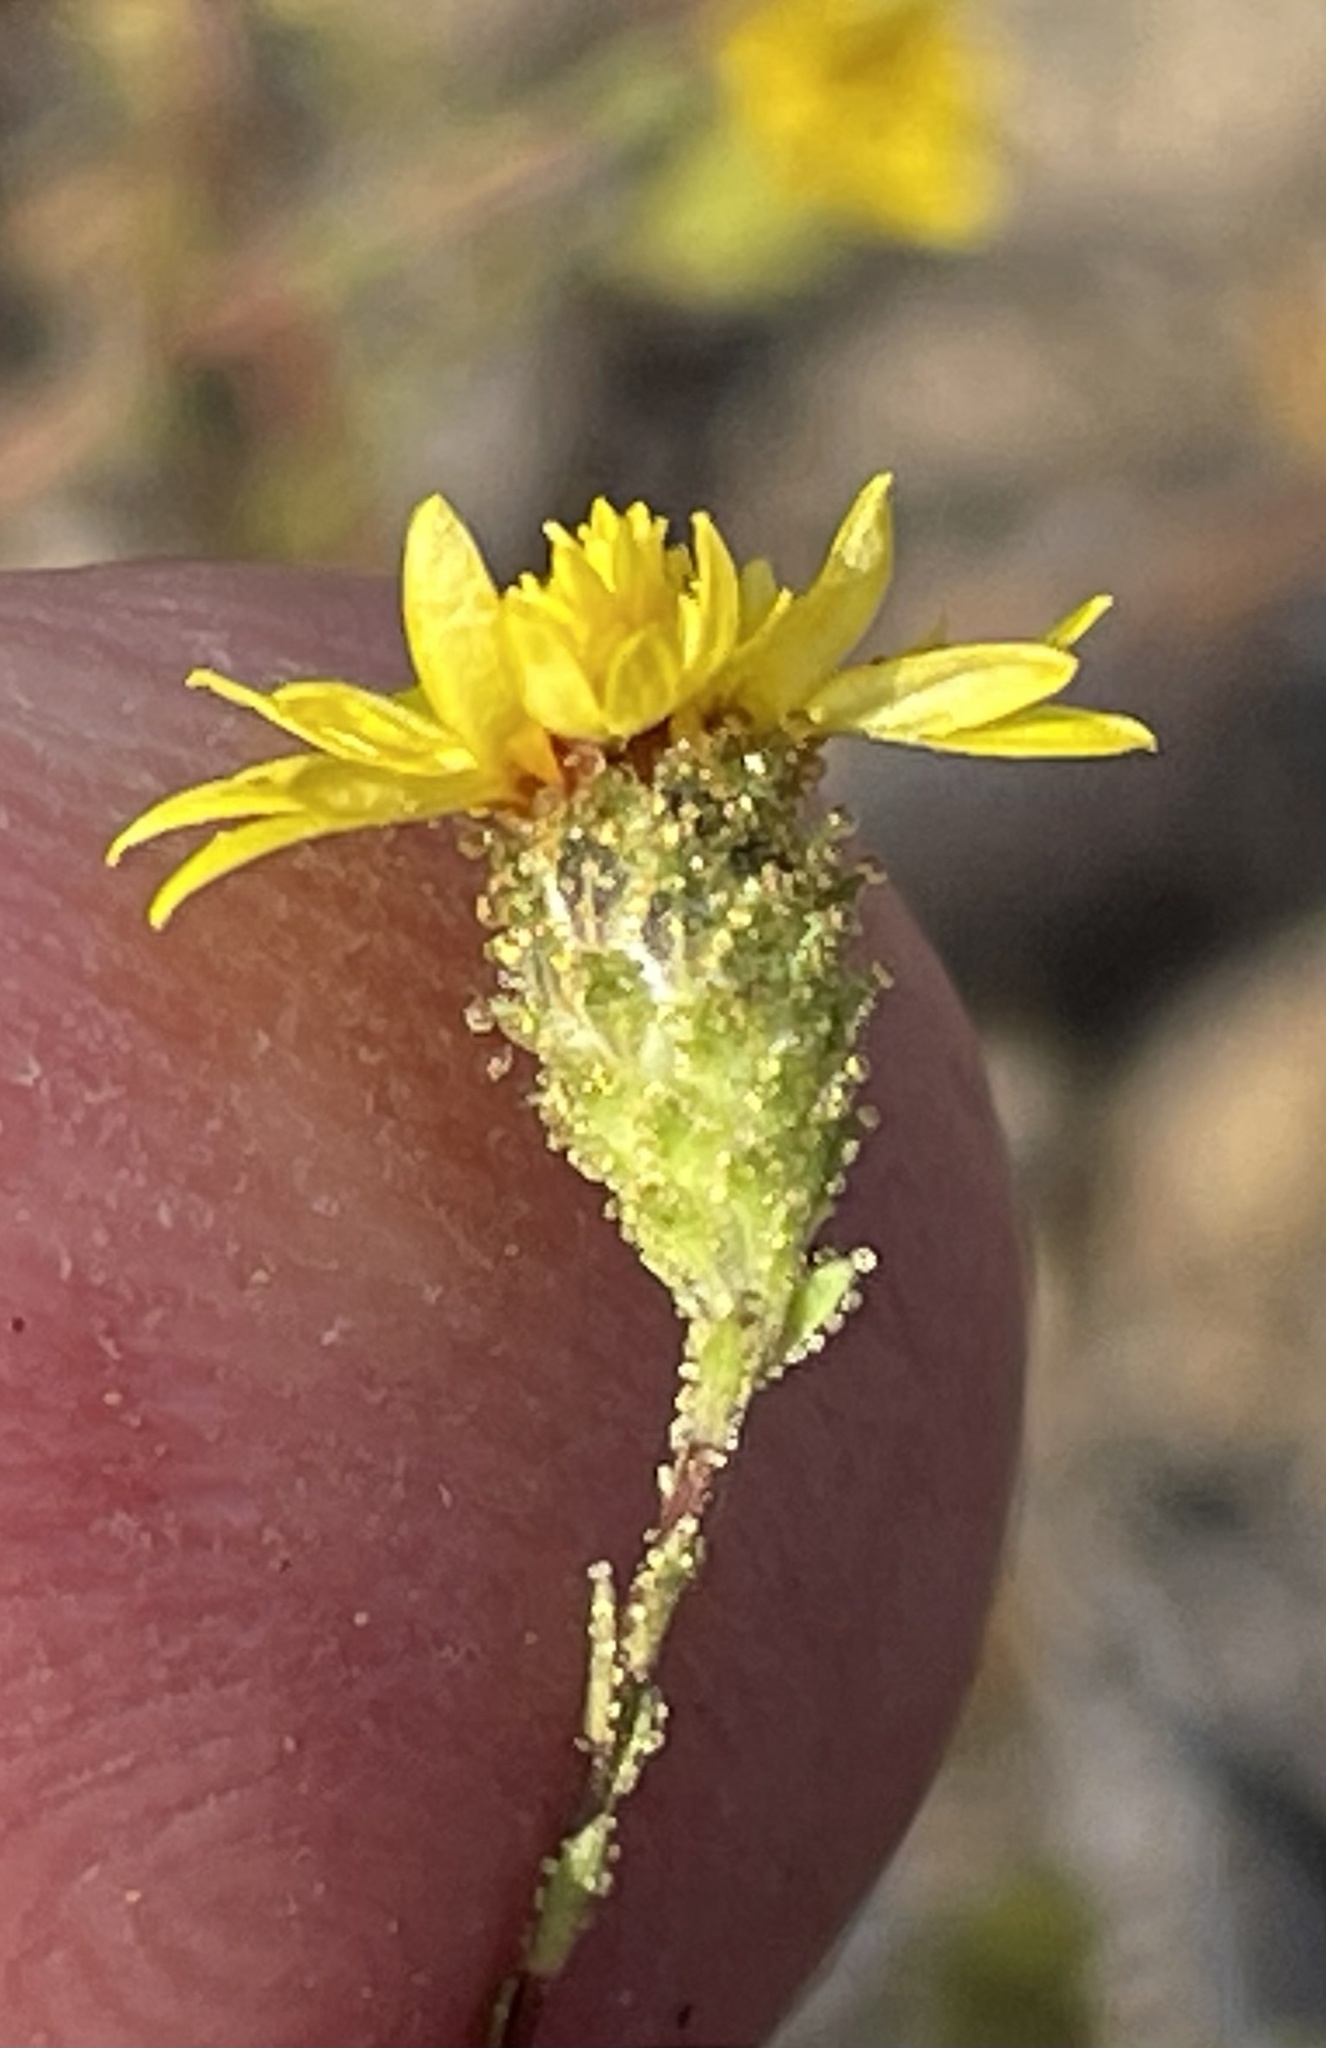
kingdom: Plantae
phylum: Tracheophyta
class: Magnoliopsida
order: Asterales
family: Asteraceae
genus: Lessingia
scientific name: Lessingia pectinata
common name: Valley lessingia
